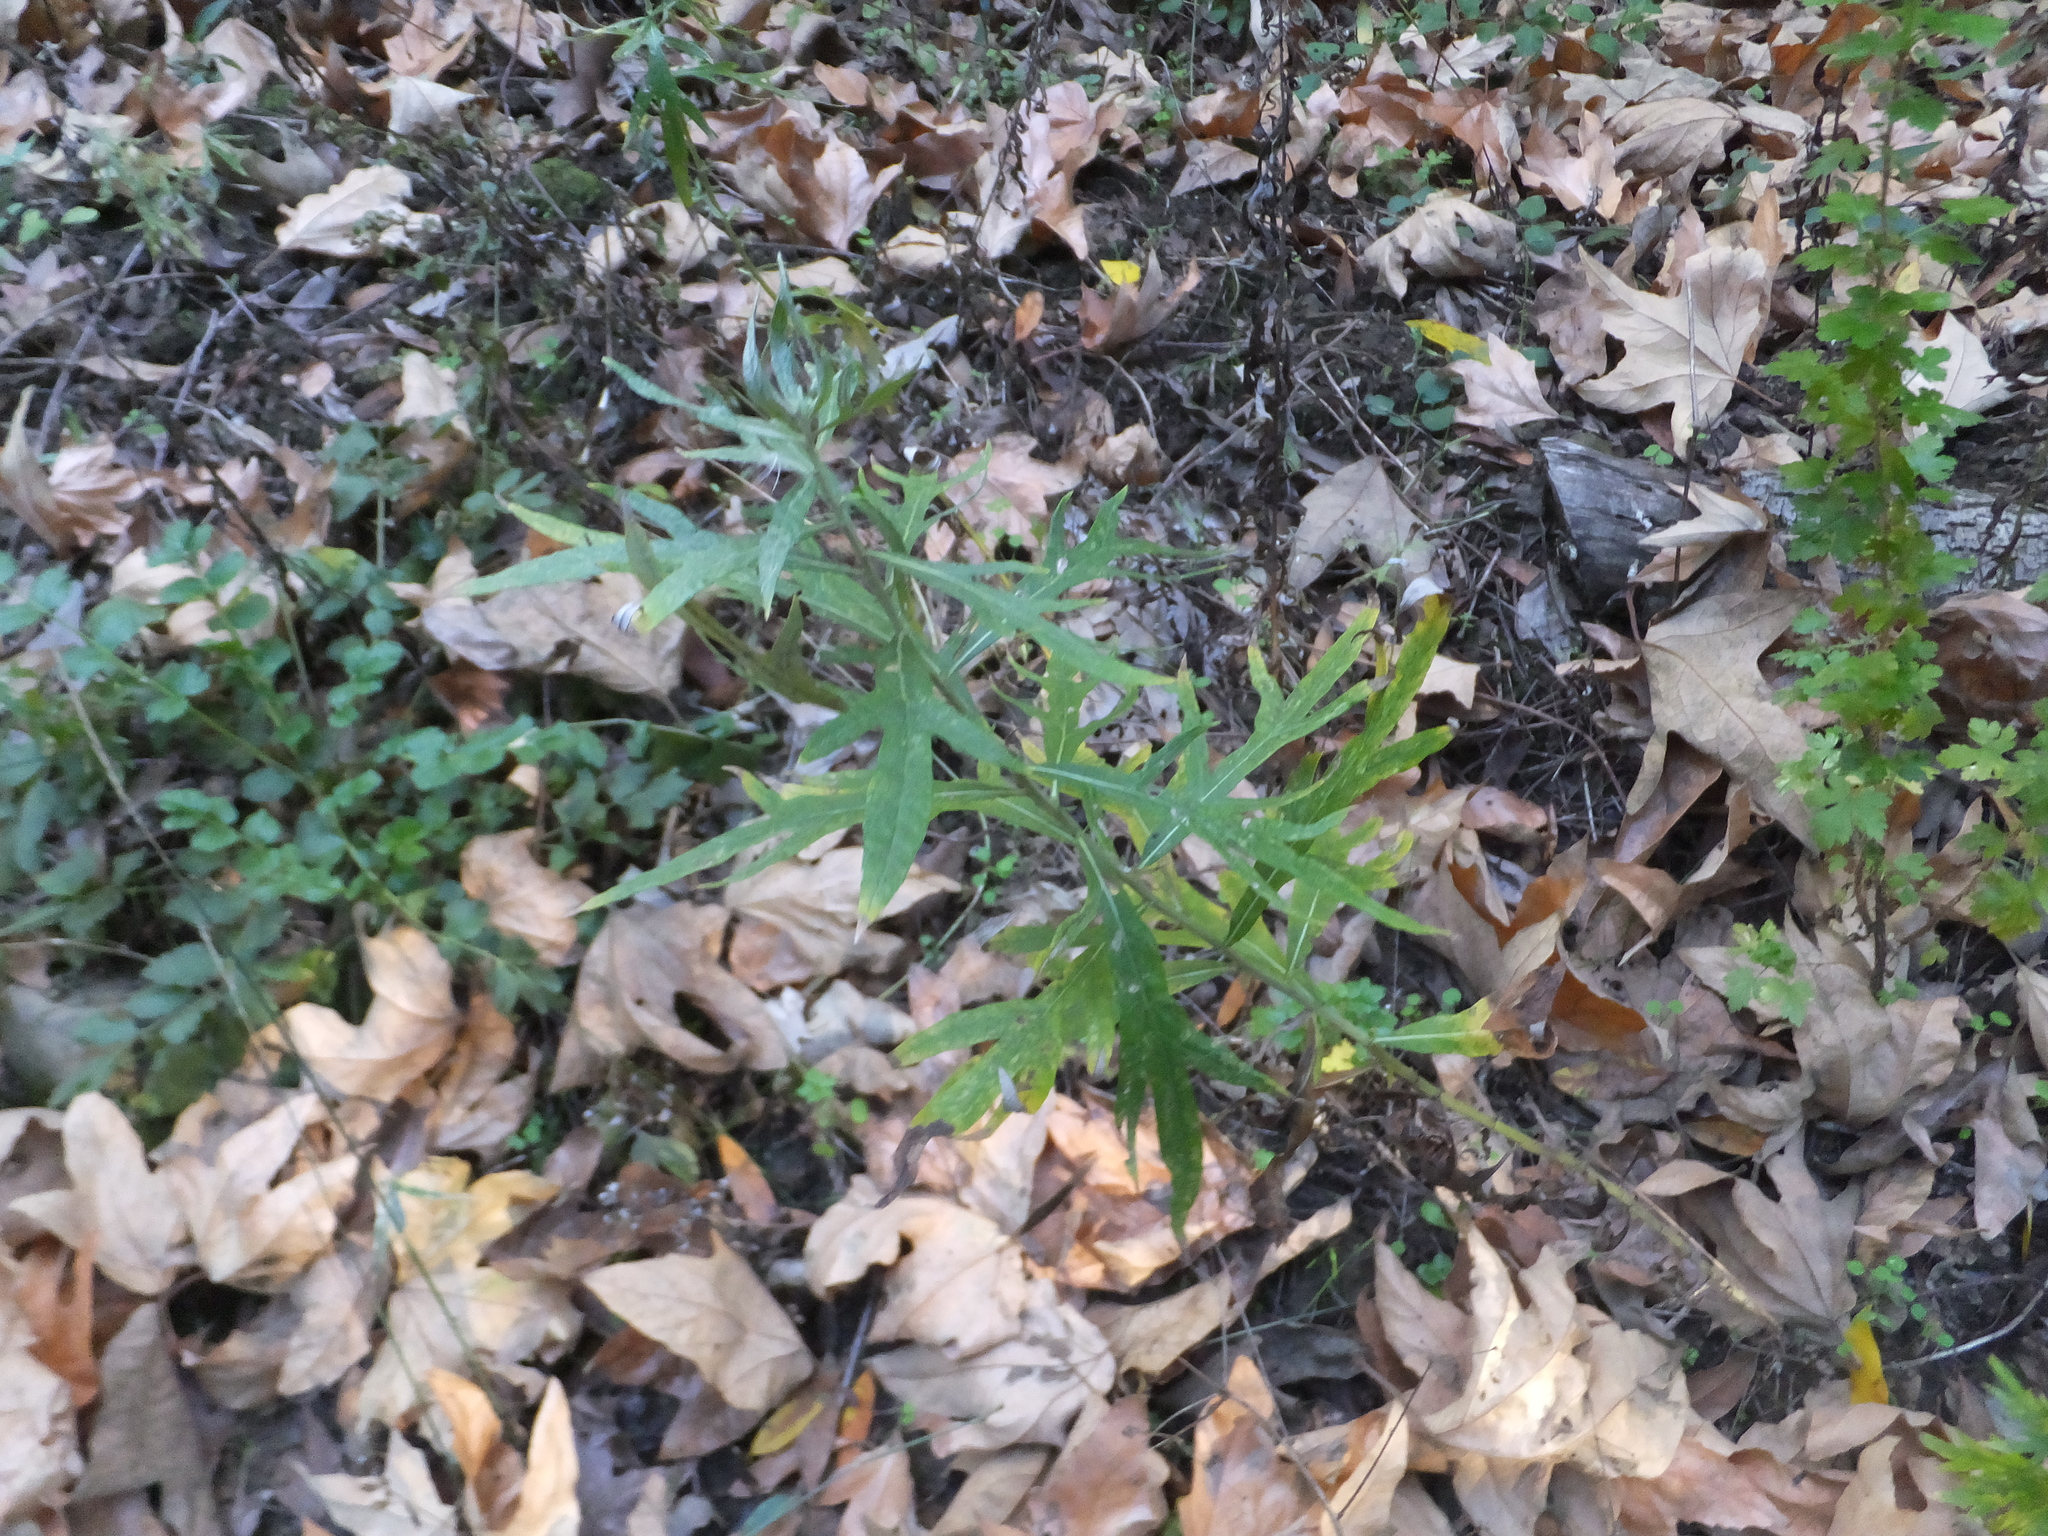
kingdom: Plantae
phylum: Tracheophyta
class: Magnoliopsida
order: Asterales
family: Asteraceae
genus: Artemisia
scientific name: Artemisia douglasiana
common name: Northwest mugwort
